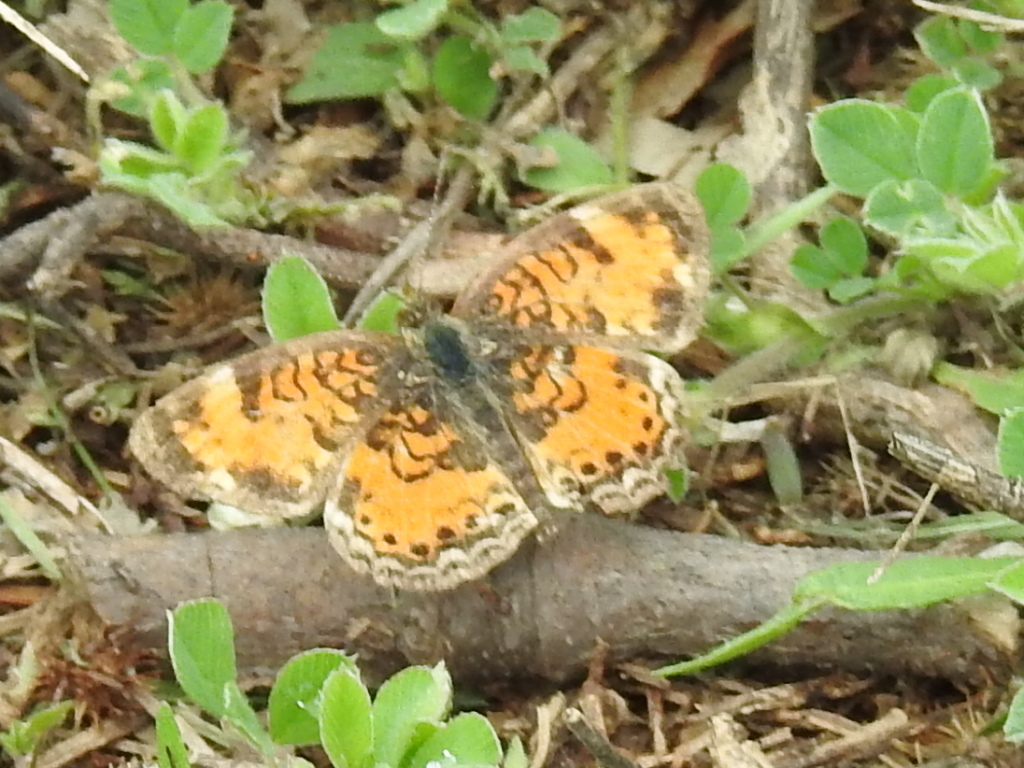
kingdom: Animalia
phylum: Arthropoda
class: Insecta
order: Lepidoptera
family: Nymphalidae
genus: Phyciodes
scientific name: Phyciodes tharos
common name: Pearl crescent
